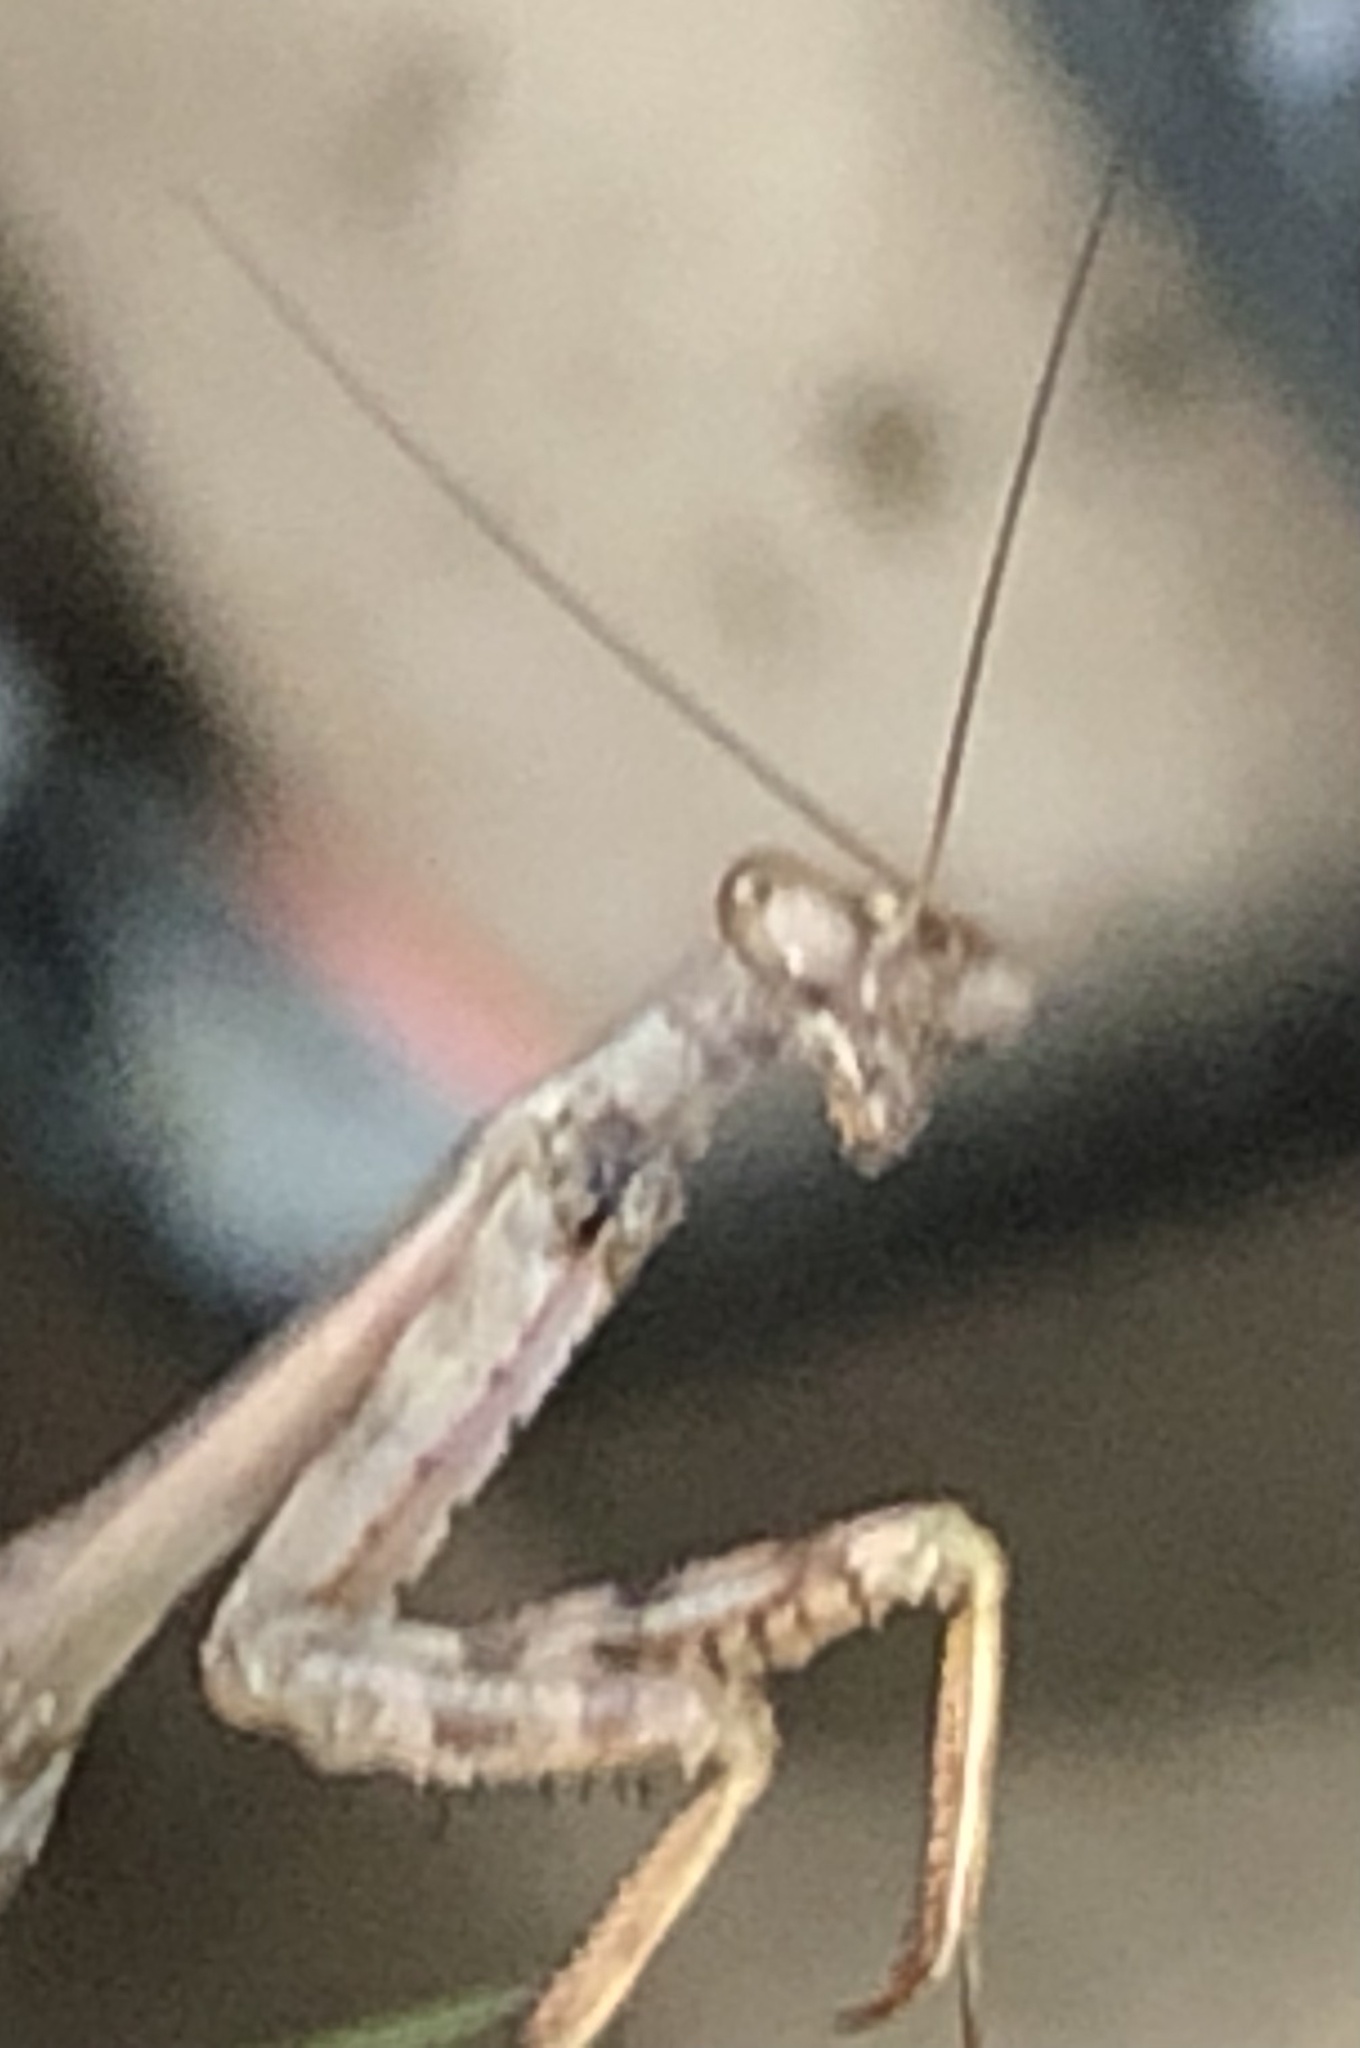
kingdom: Animalia
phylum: Arthropoda
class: Insecta
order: Mantodea
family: Mantidae
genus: Stagmomantis
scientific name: Stagmomantis carolina
